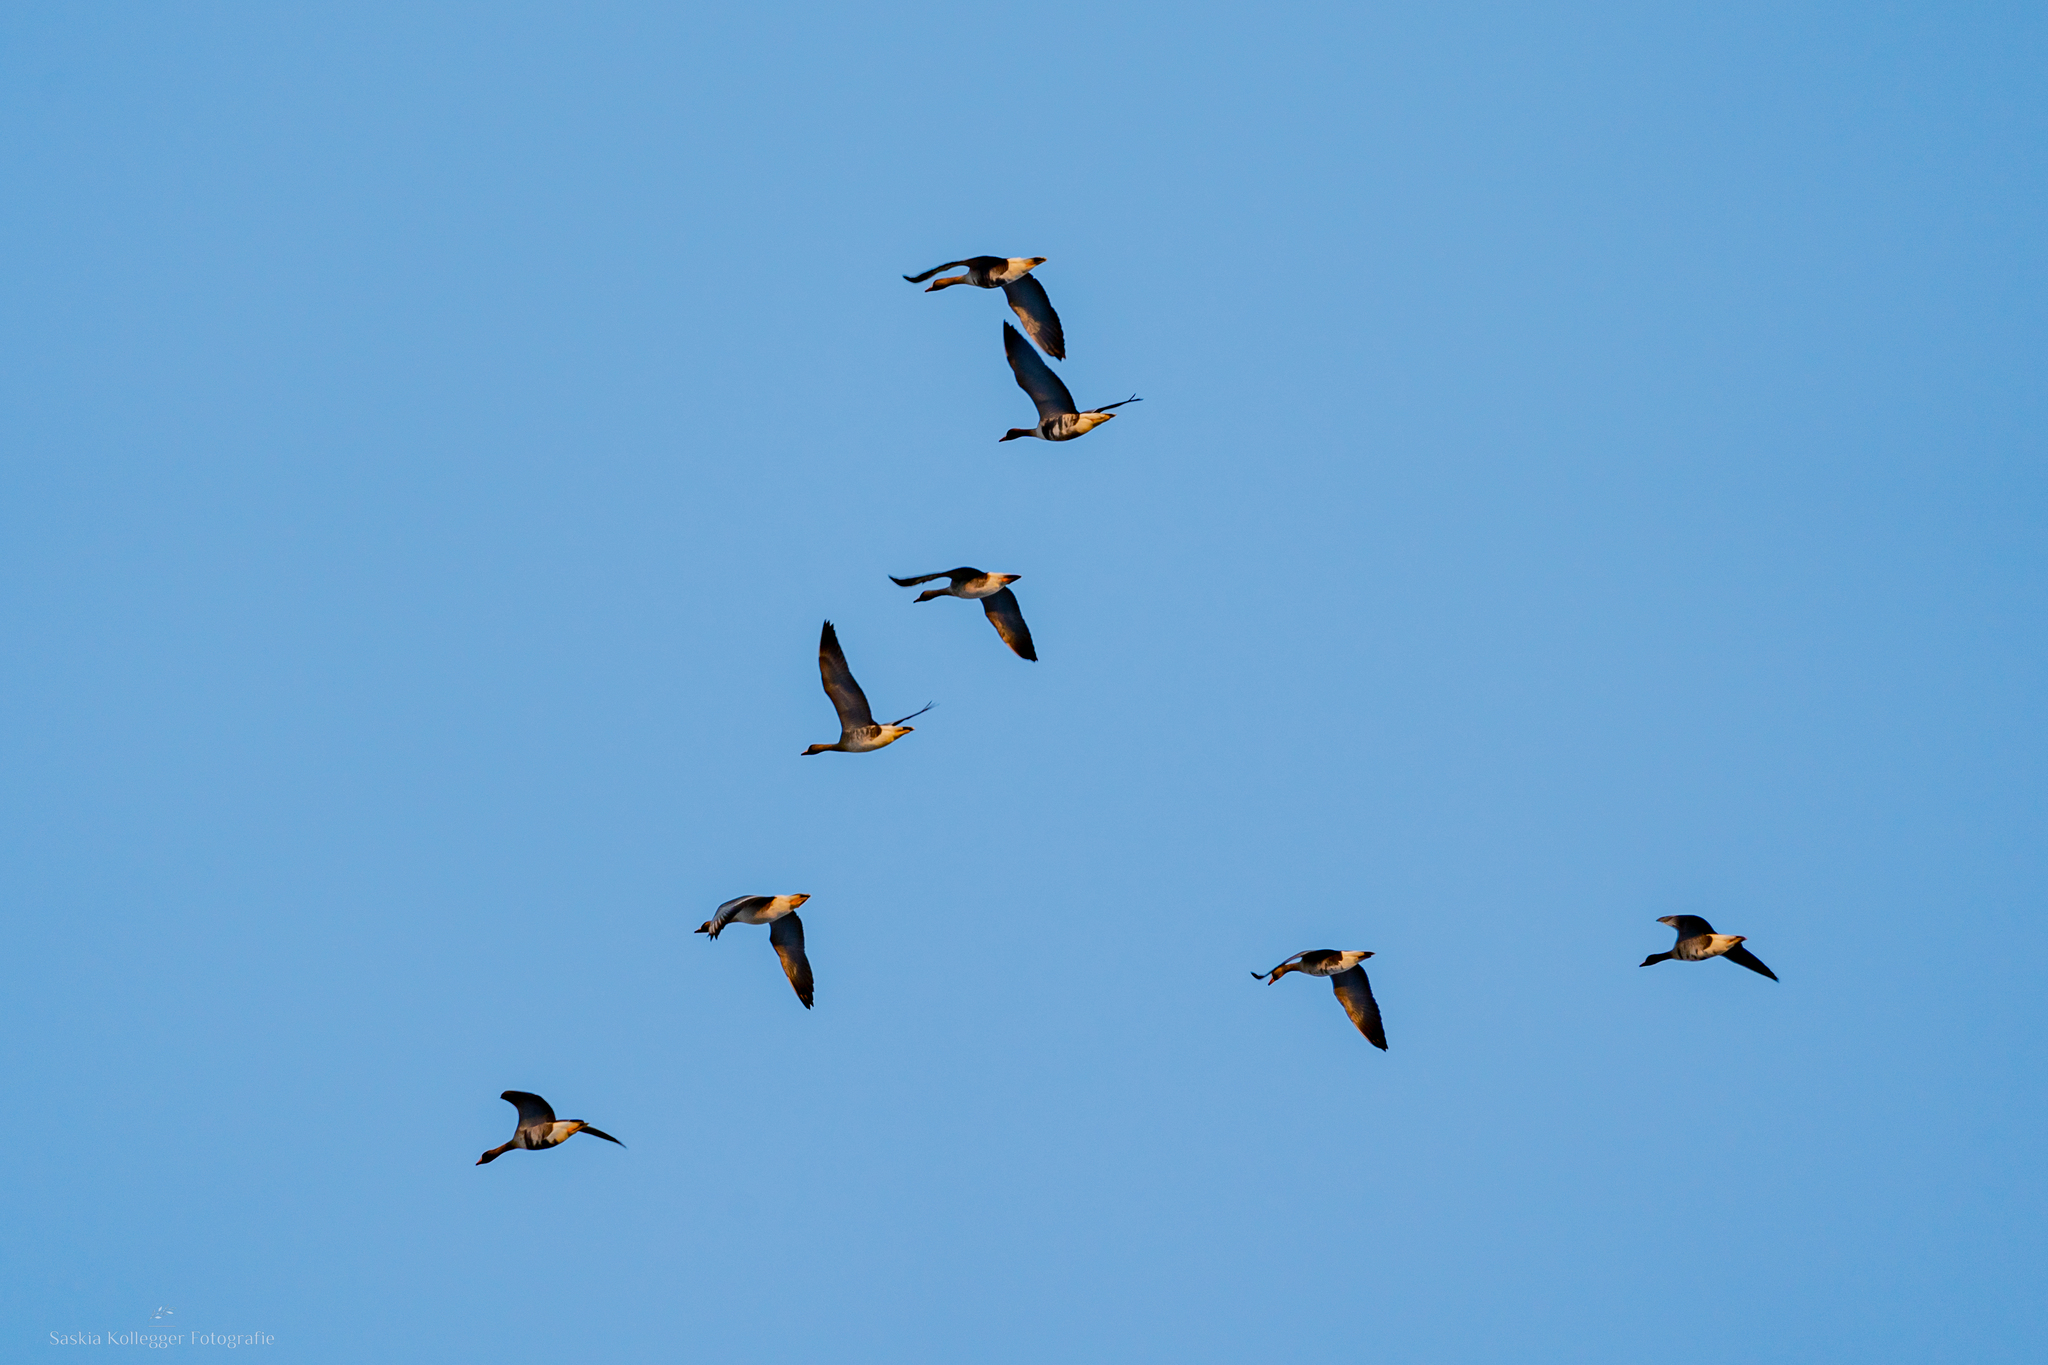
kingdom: Animalia
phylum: Chordata
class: Aves
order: Anseriformes
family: Anatidae
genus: Anser
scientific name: Anser albifrons
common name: Greater white-fronted goose
